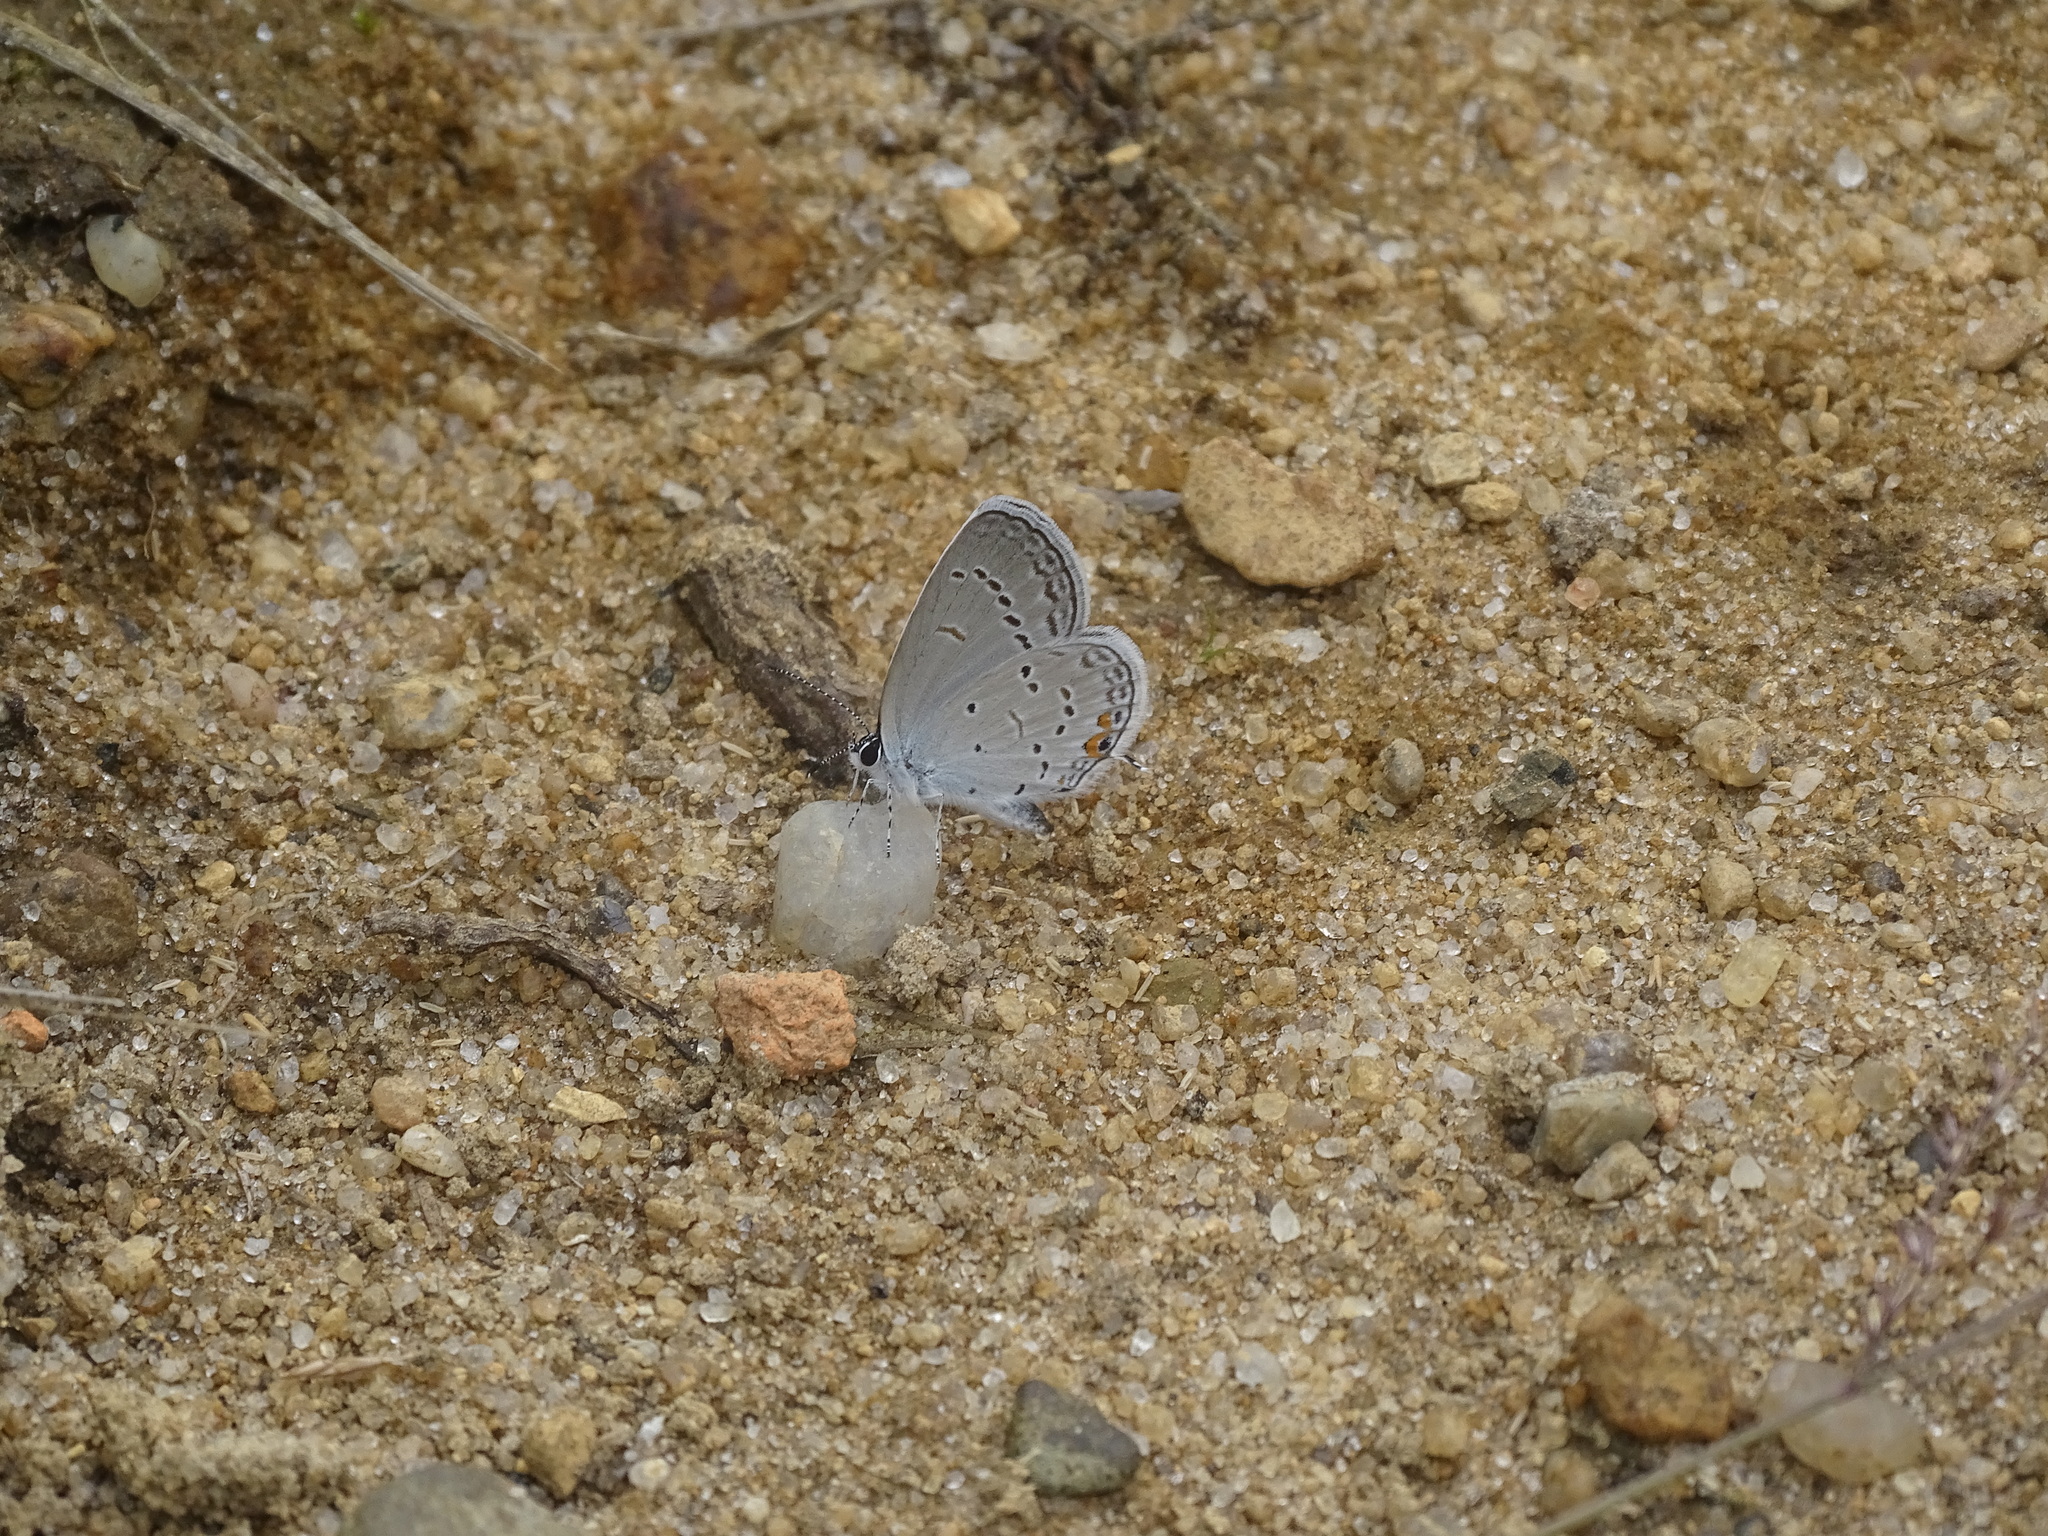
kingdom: Animalia
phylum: Arthropoda
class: Insecta
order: Lepidoptera
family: Lycaenidae
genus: Elkalyce
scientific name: Elkalyce comyntas
